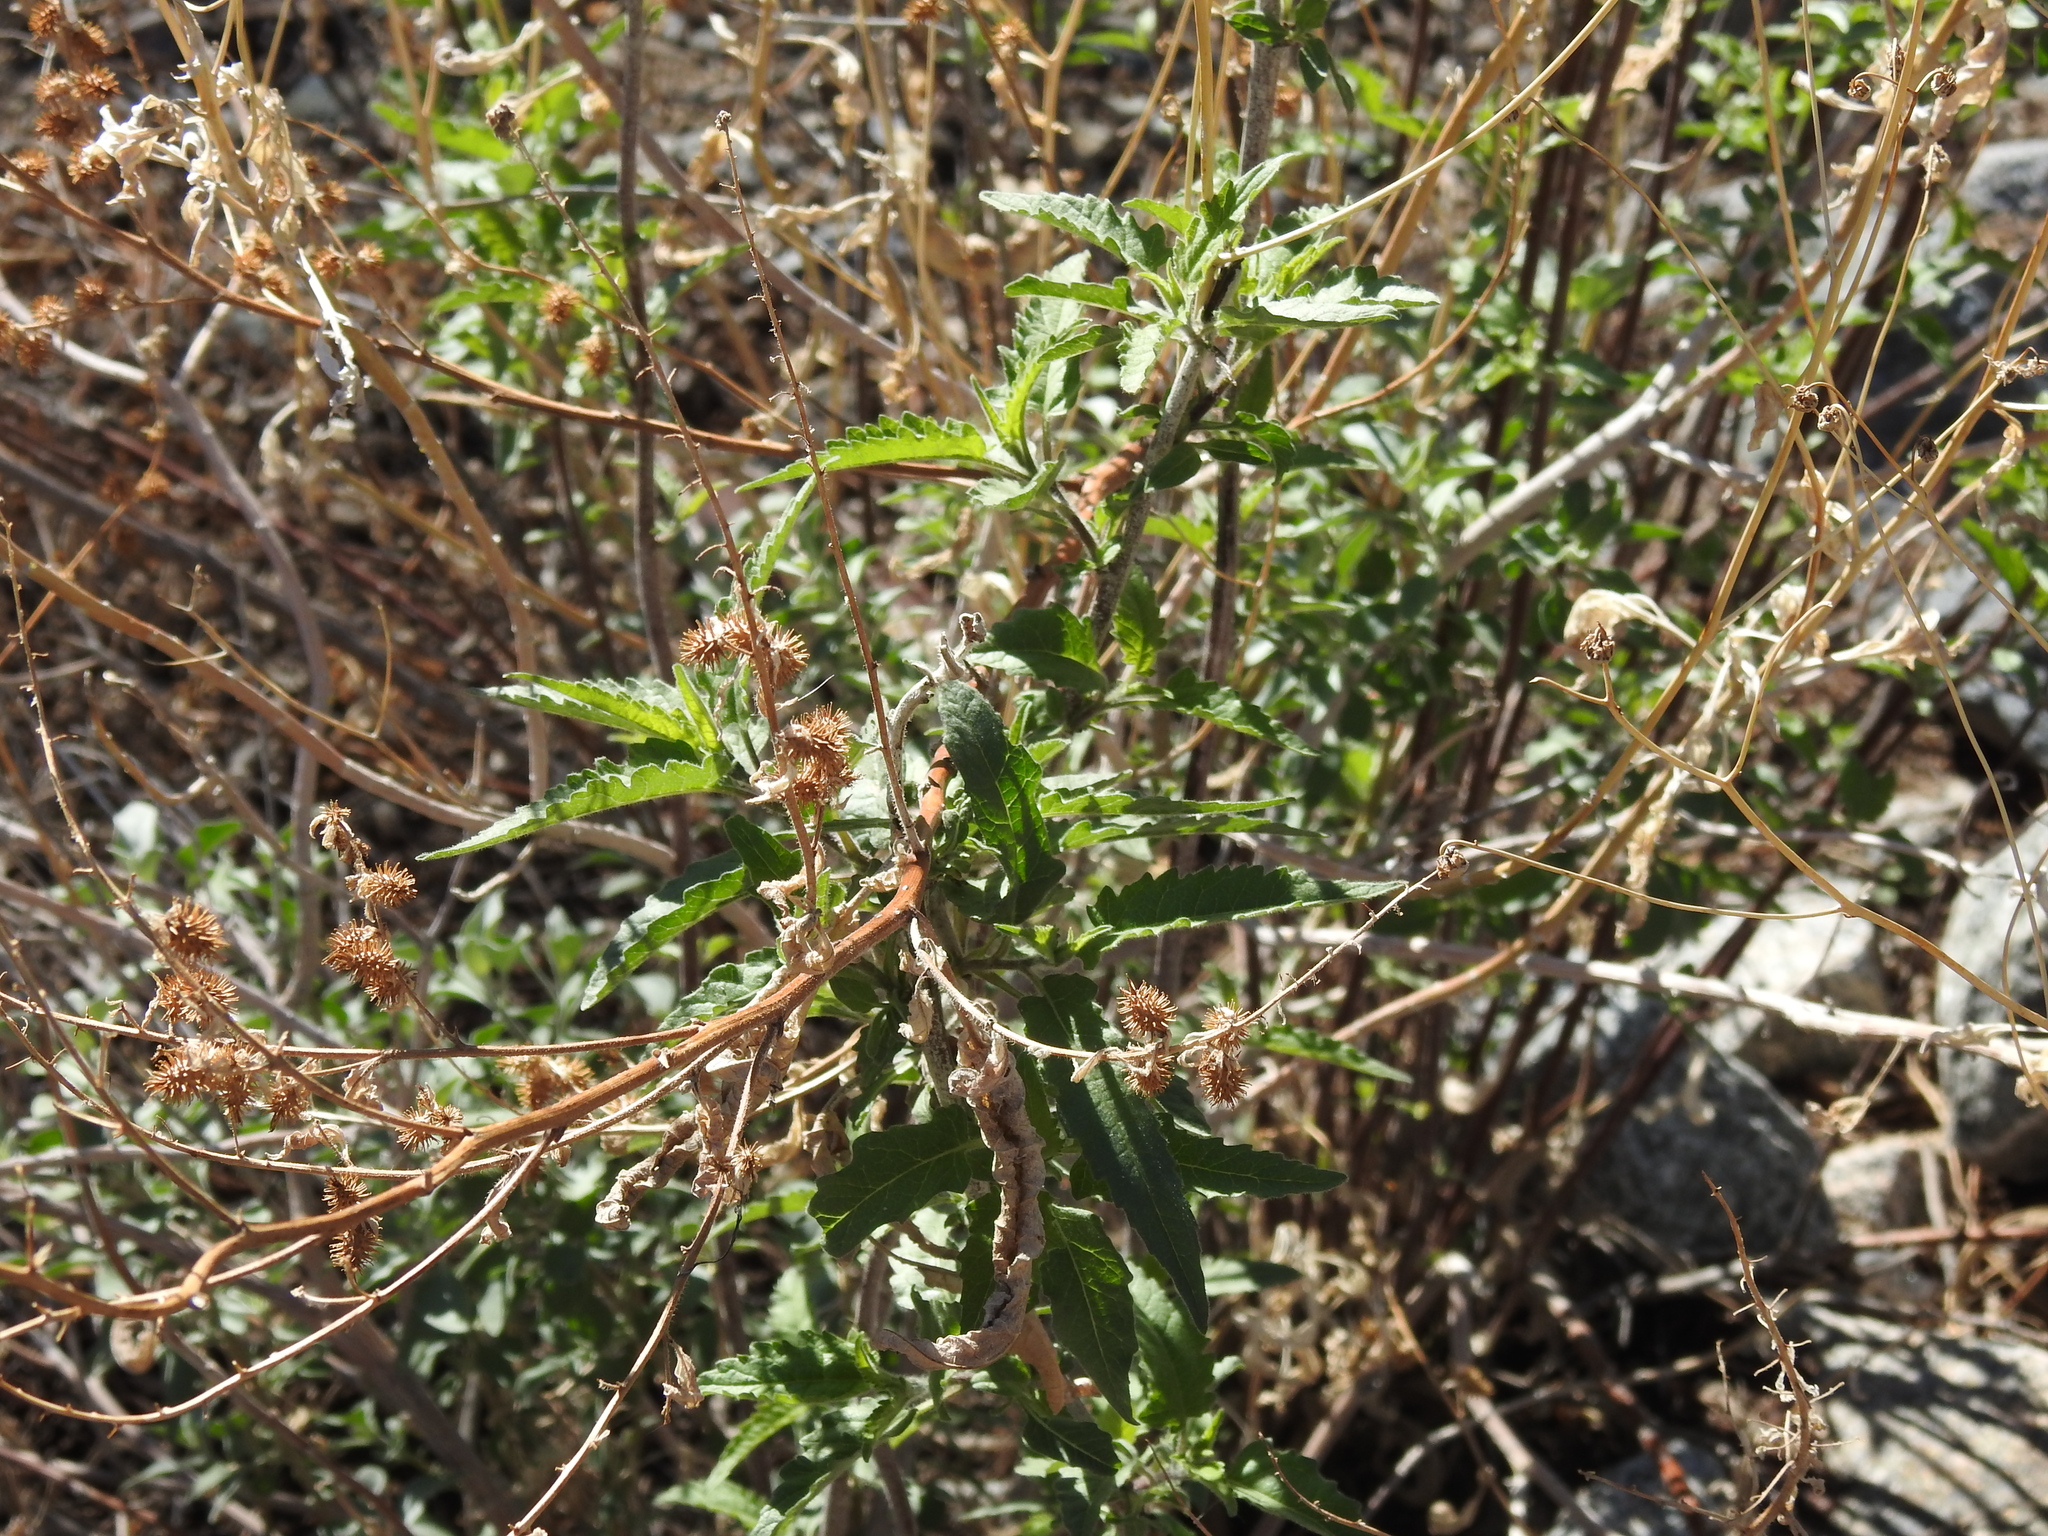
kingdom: Plantae
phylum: Tracheophyta
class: Magnoliopsida
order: Asterales
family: Asteraceae
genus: Ambrosia
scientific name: Ambrosia ambrosioides
